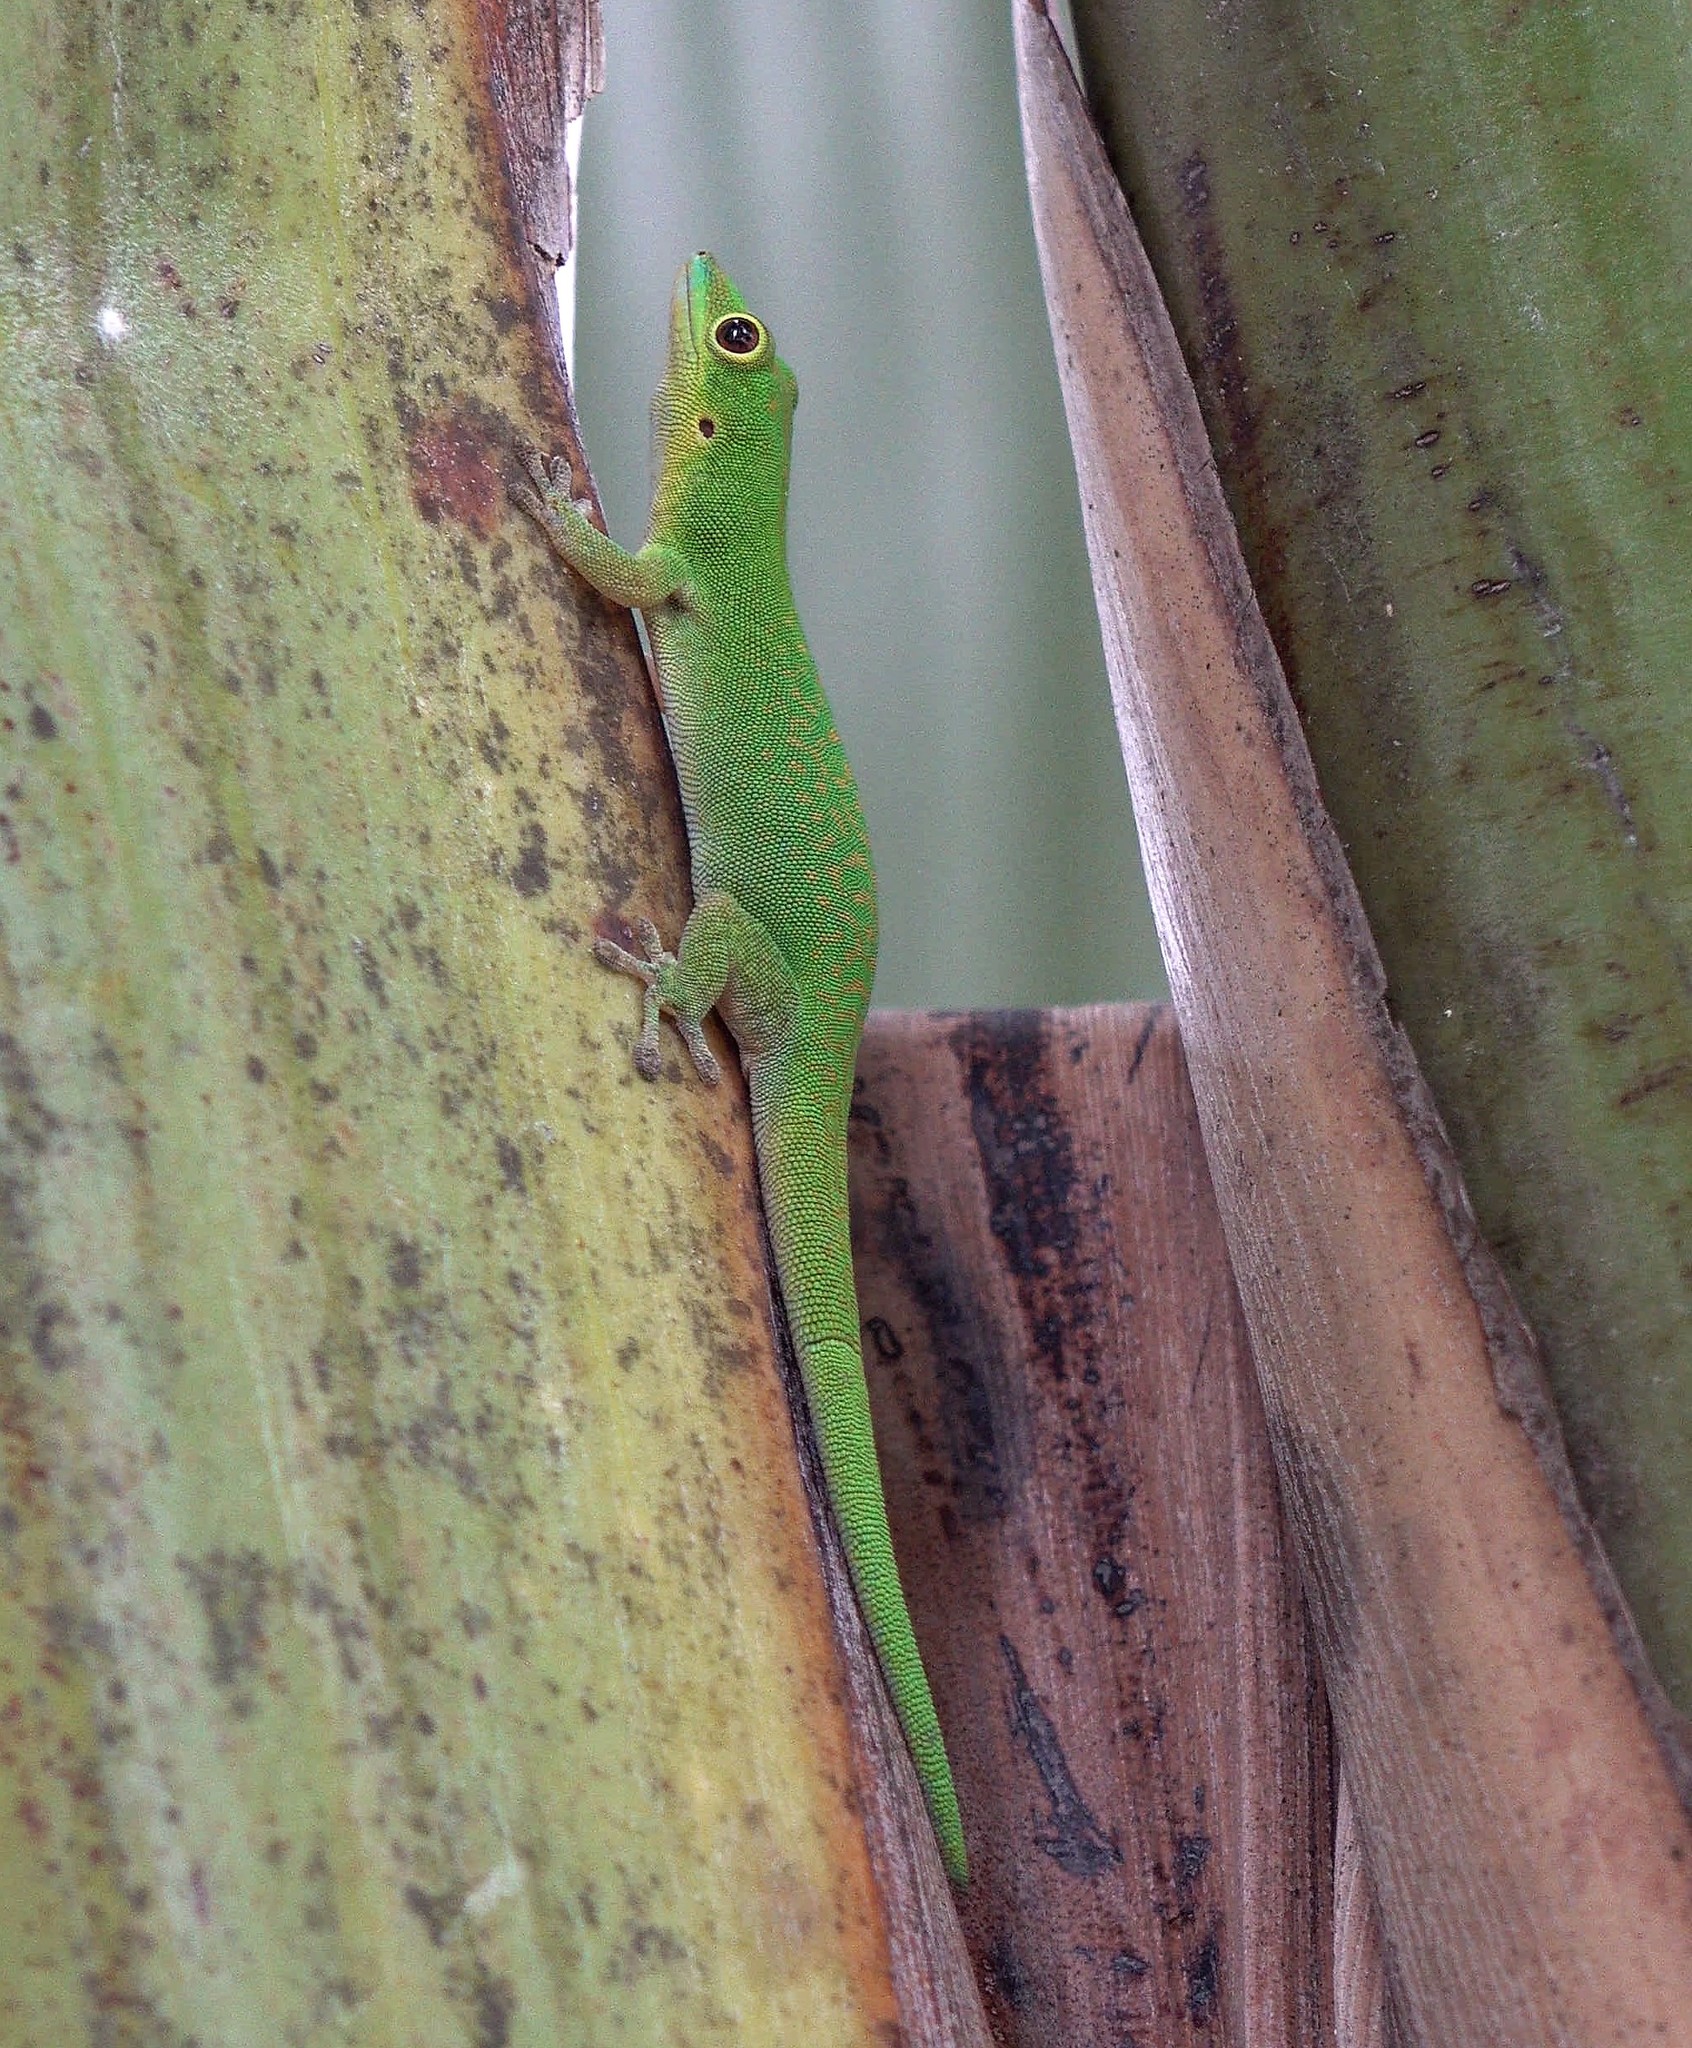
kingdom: Animalia
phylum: Chordata
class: Squamata
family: Gekkonidae
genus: Phelsuma
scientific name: Phelsuma nigra
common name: Indian day gecko
